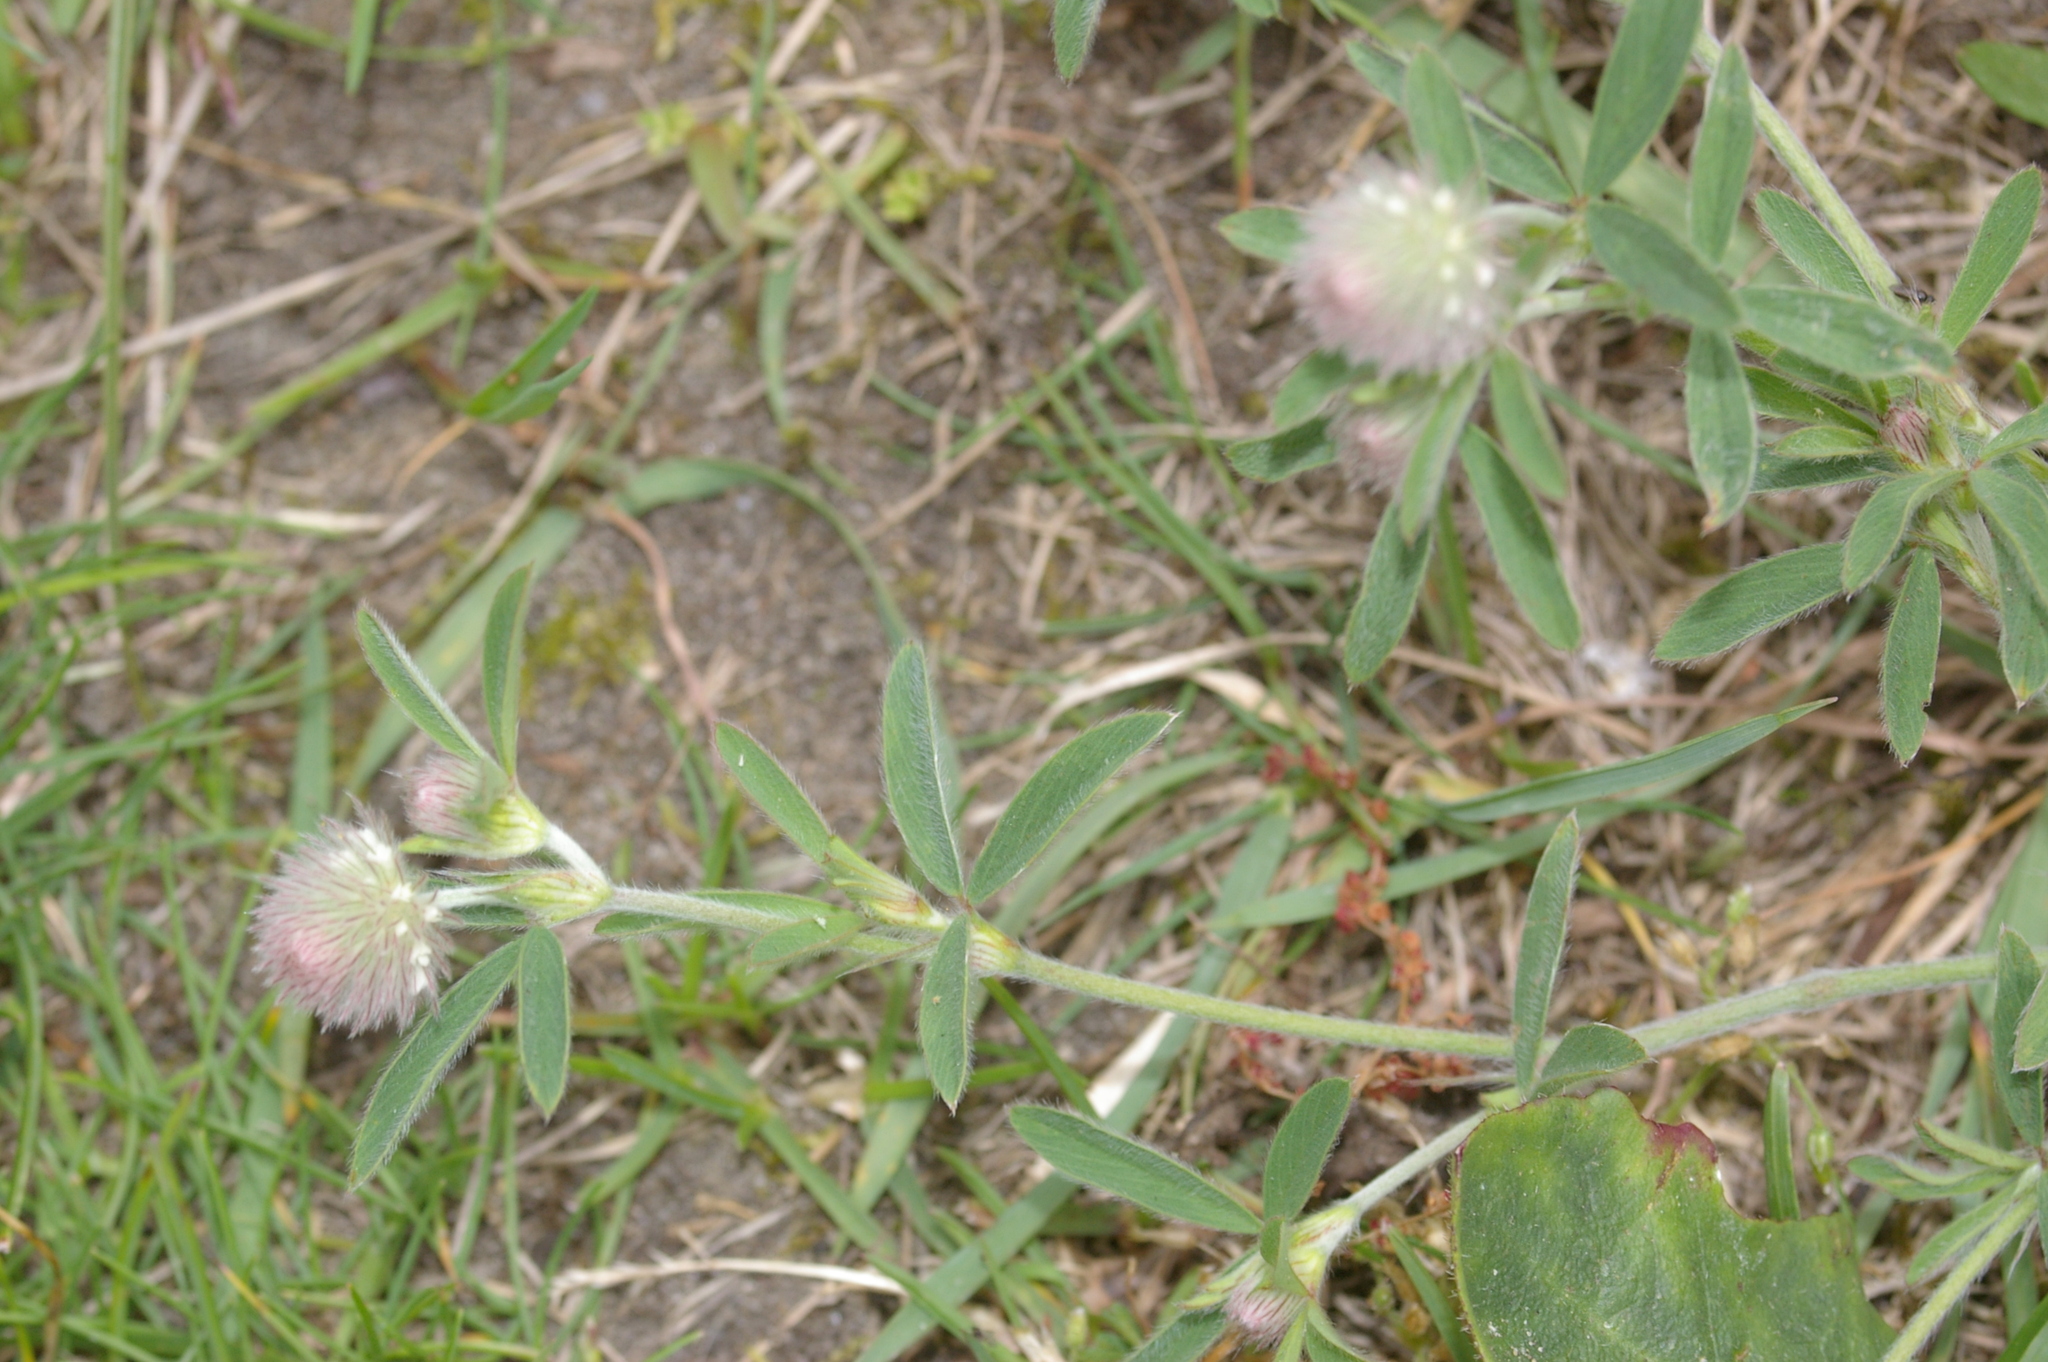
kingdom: Plantae
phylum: Tracheophyta
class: Magnoliopsida
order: Fabales
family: Fabaceae
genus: Trifolium
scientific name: Trifolium arvense
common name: Hare's-foot clover
